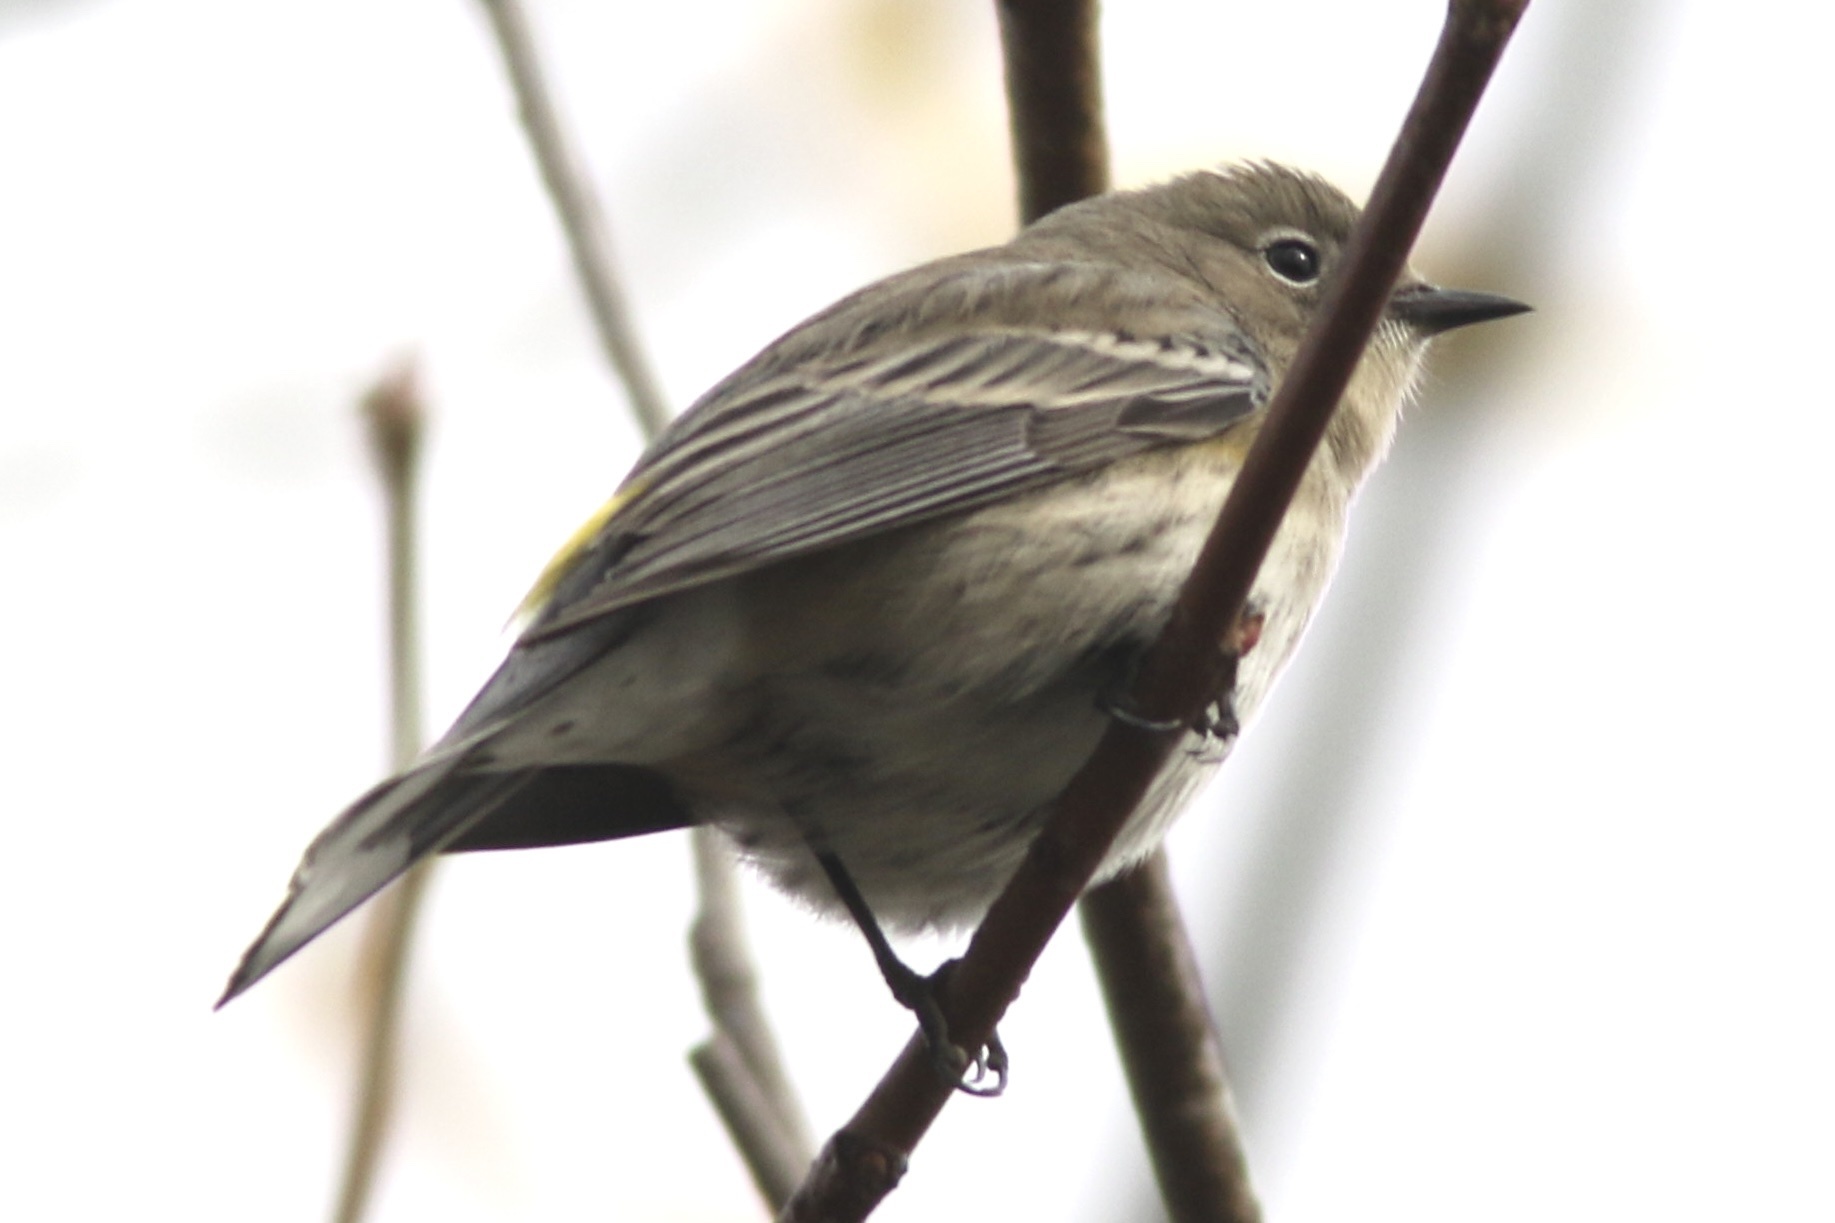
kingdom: Animalia
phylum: Chordata
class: Aves
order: Passeriformes
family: Parulidae
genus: Setophaga
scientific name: Setophaga coronata
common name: Myrtle warbler
